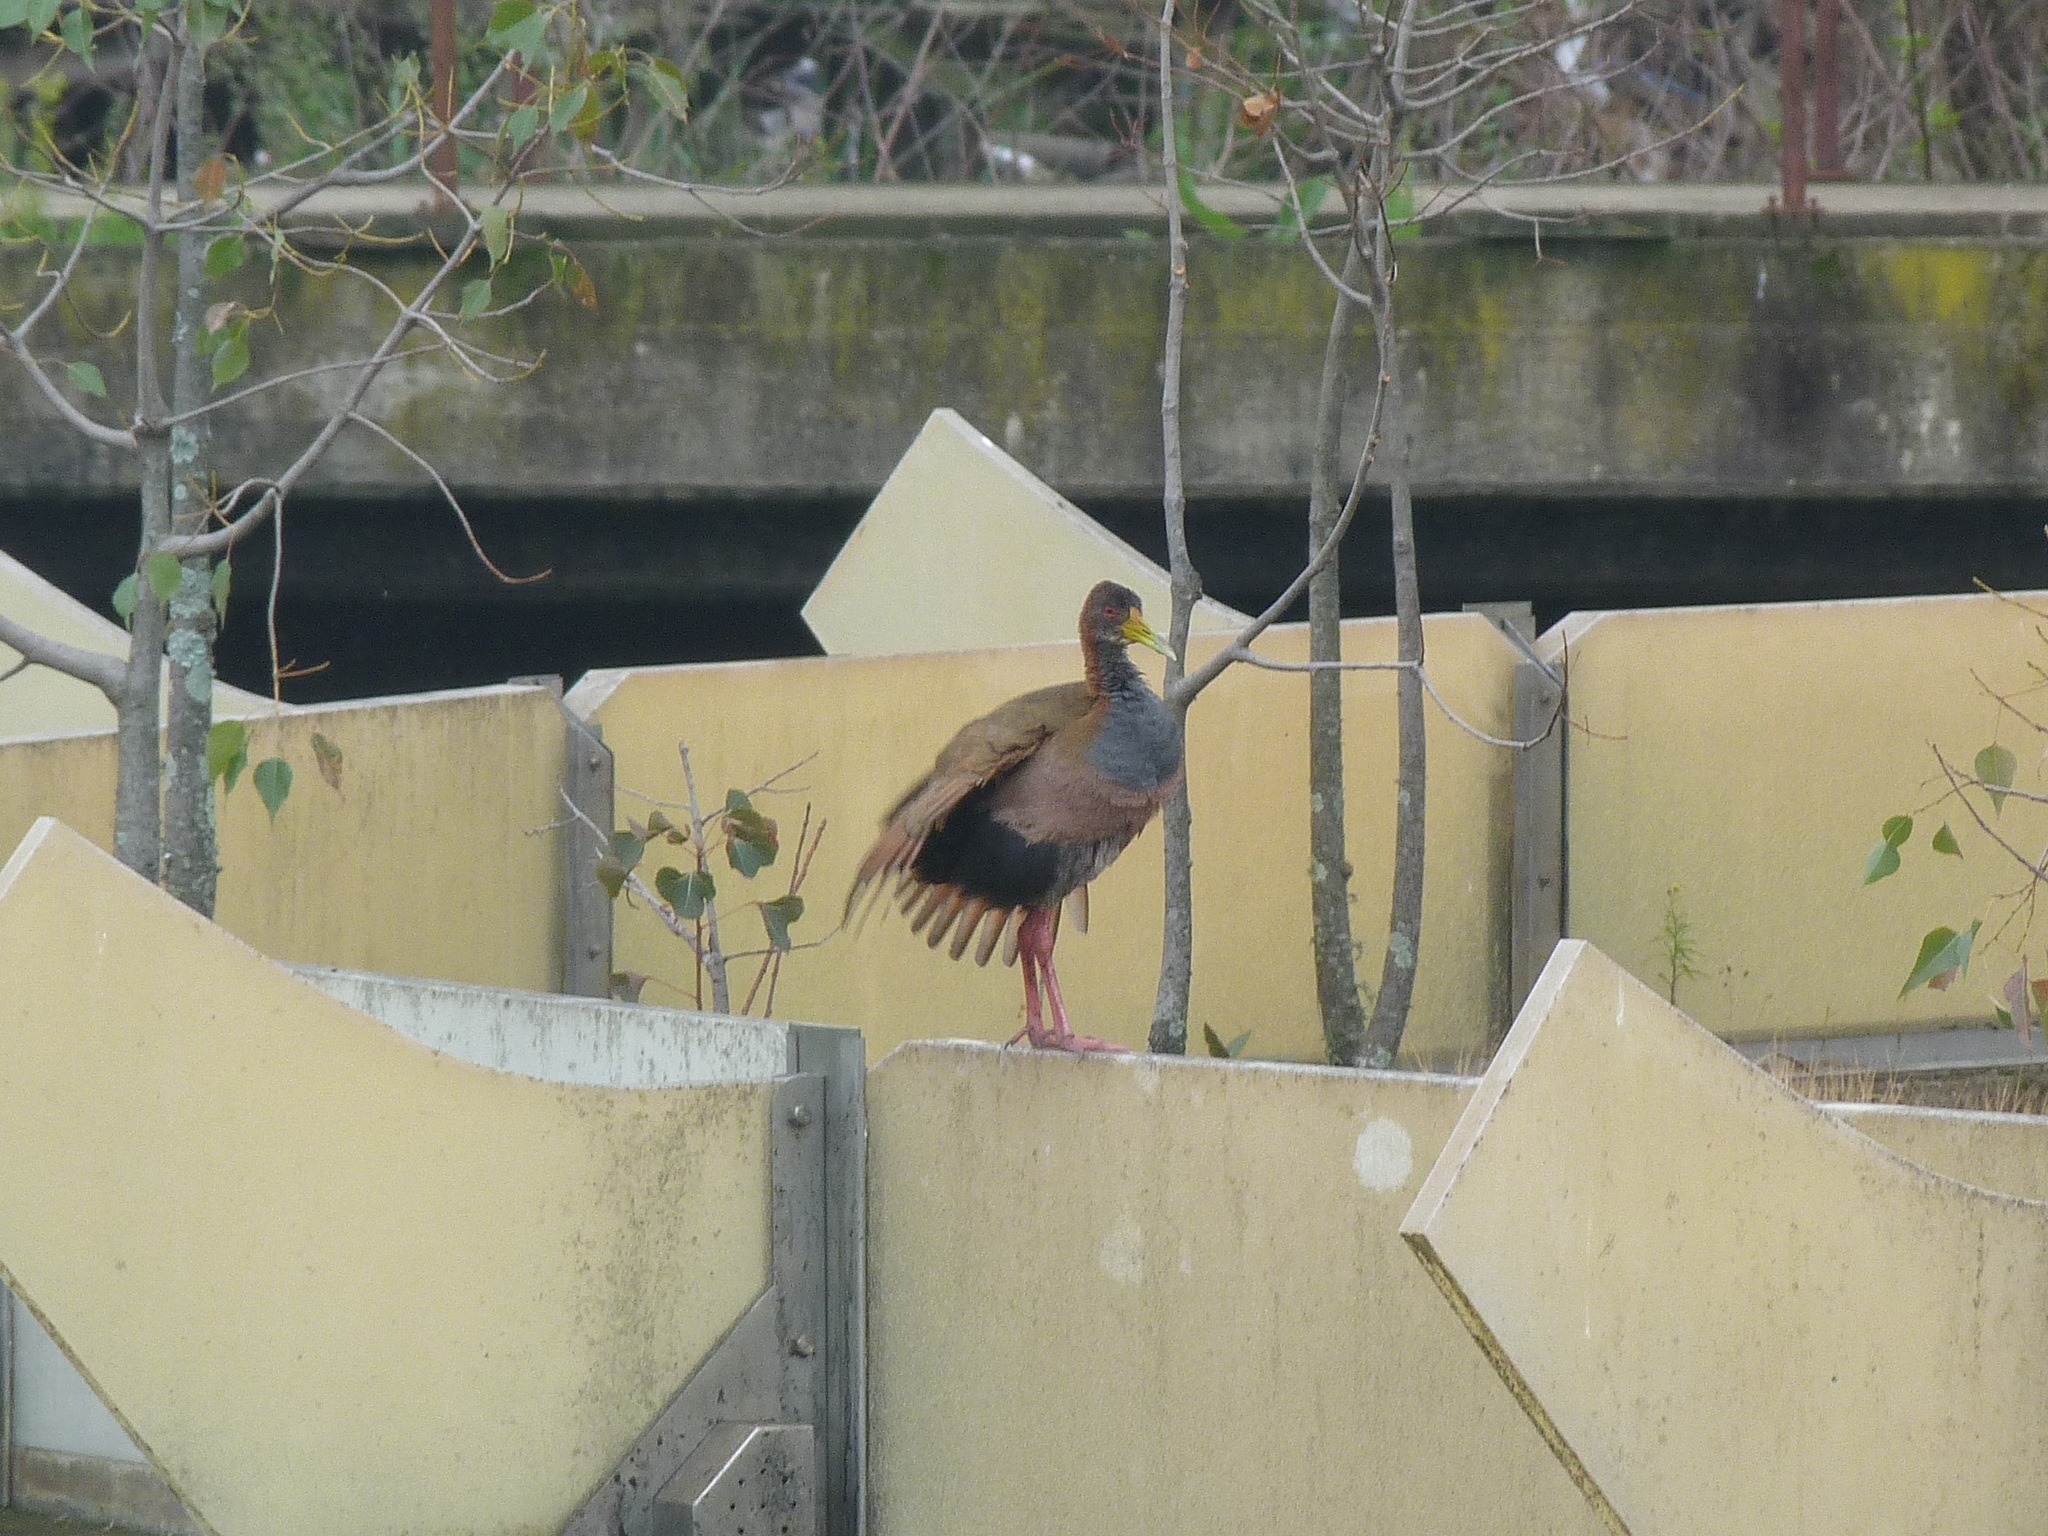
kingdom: Animalia
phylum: Chordata
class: Aves
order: Gruiformes
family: Rallidae
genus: Aramides
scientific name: Aramides ypecaha
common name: Giant wood rail
